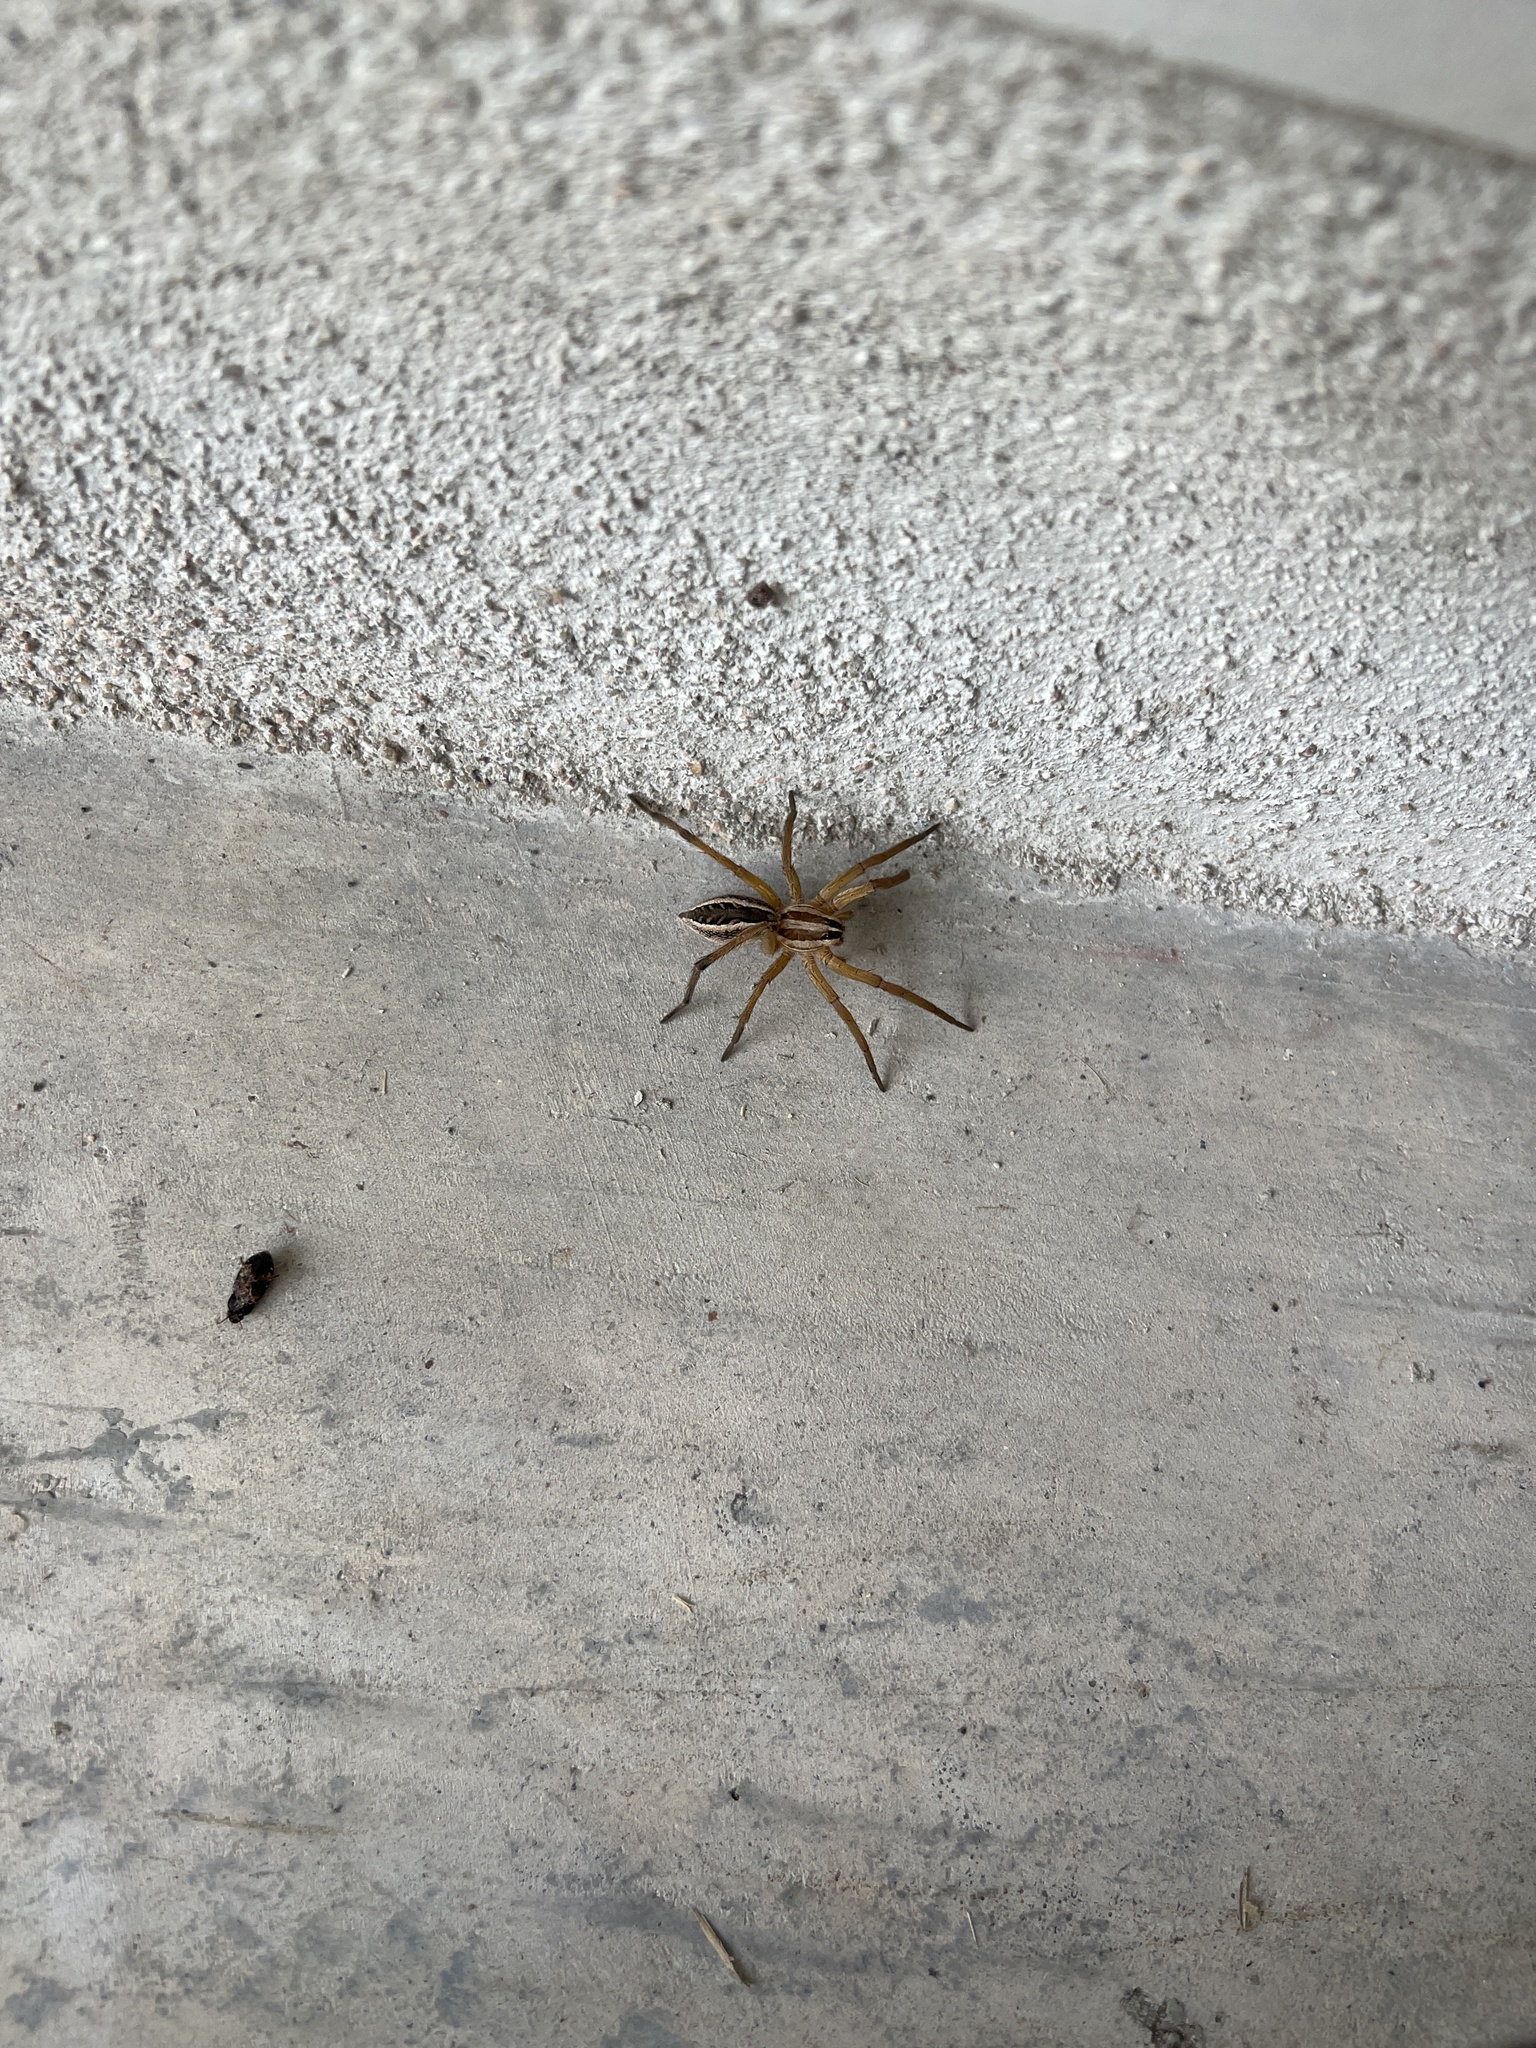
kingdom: Animalia
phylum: Arthropoda
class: Arachnida
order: Araneae
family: Lycosidae
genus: Rabidosa
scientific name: Rabidosa rabida
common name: Rabid wolf spider
